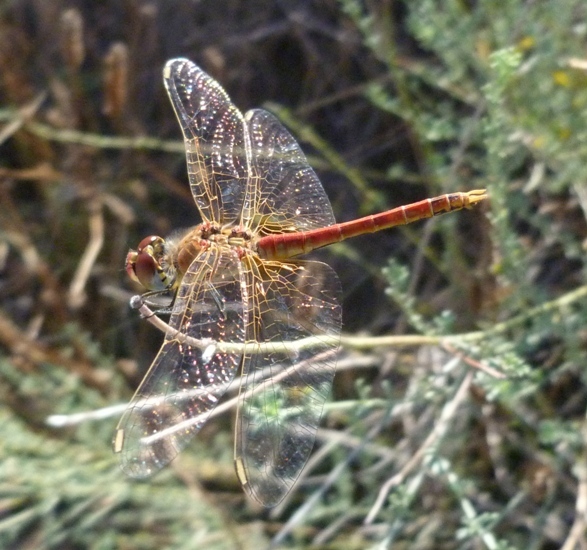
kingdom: Animalia
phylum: Arthropoda
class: Insecta
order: Odonata
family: Libellulidae
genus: Sympetrum
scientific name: Sympetrum fonscolombii
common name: Red-veined darter
